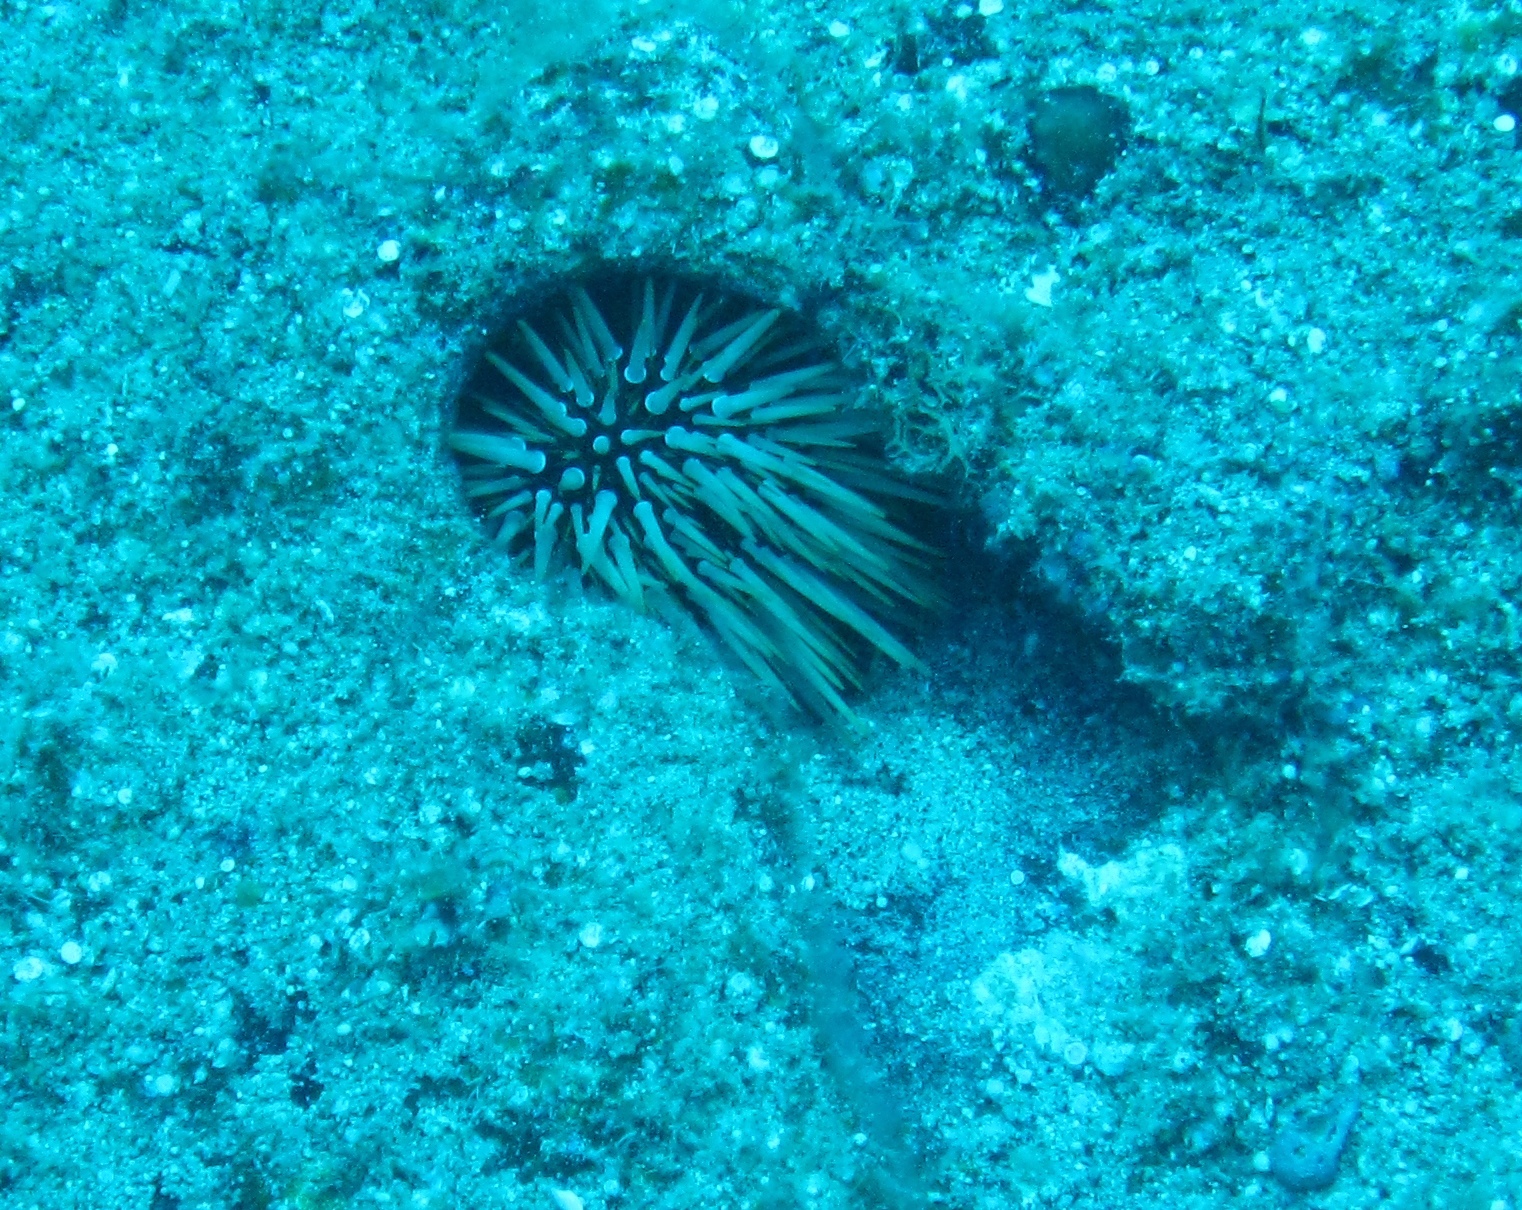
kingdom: Animalia
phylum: Echinodermata
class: Echinoidea
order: Camarodonta
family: Echinometridae
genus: Echinometra
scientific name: Echinometra mathaei
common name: Rock-boring urchin
